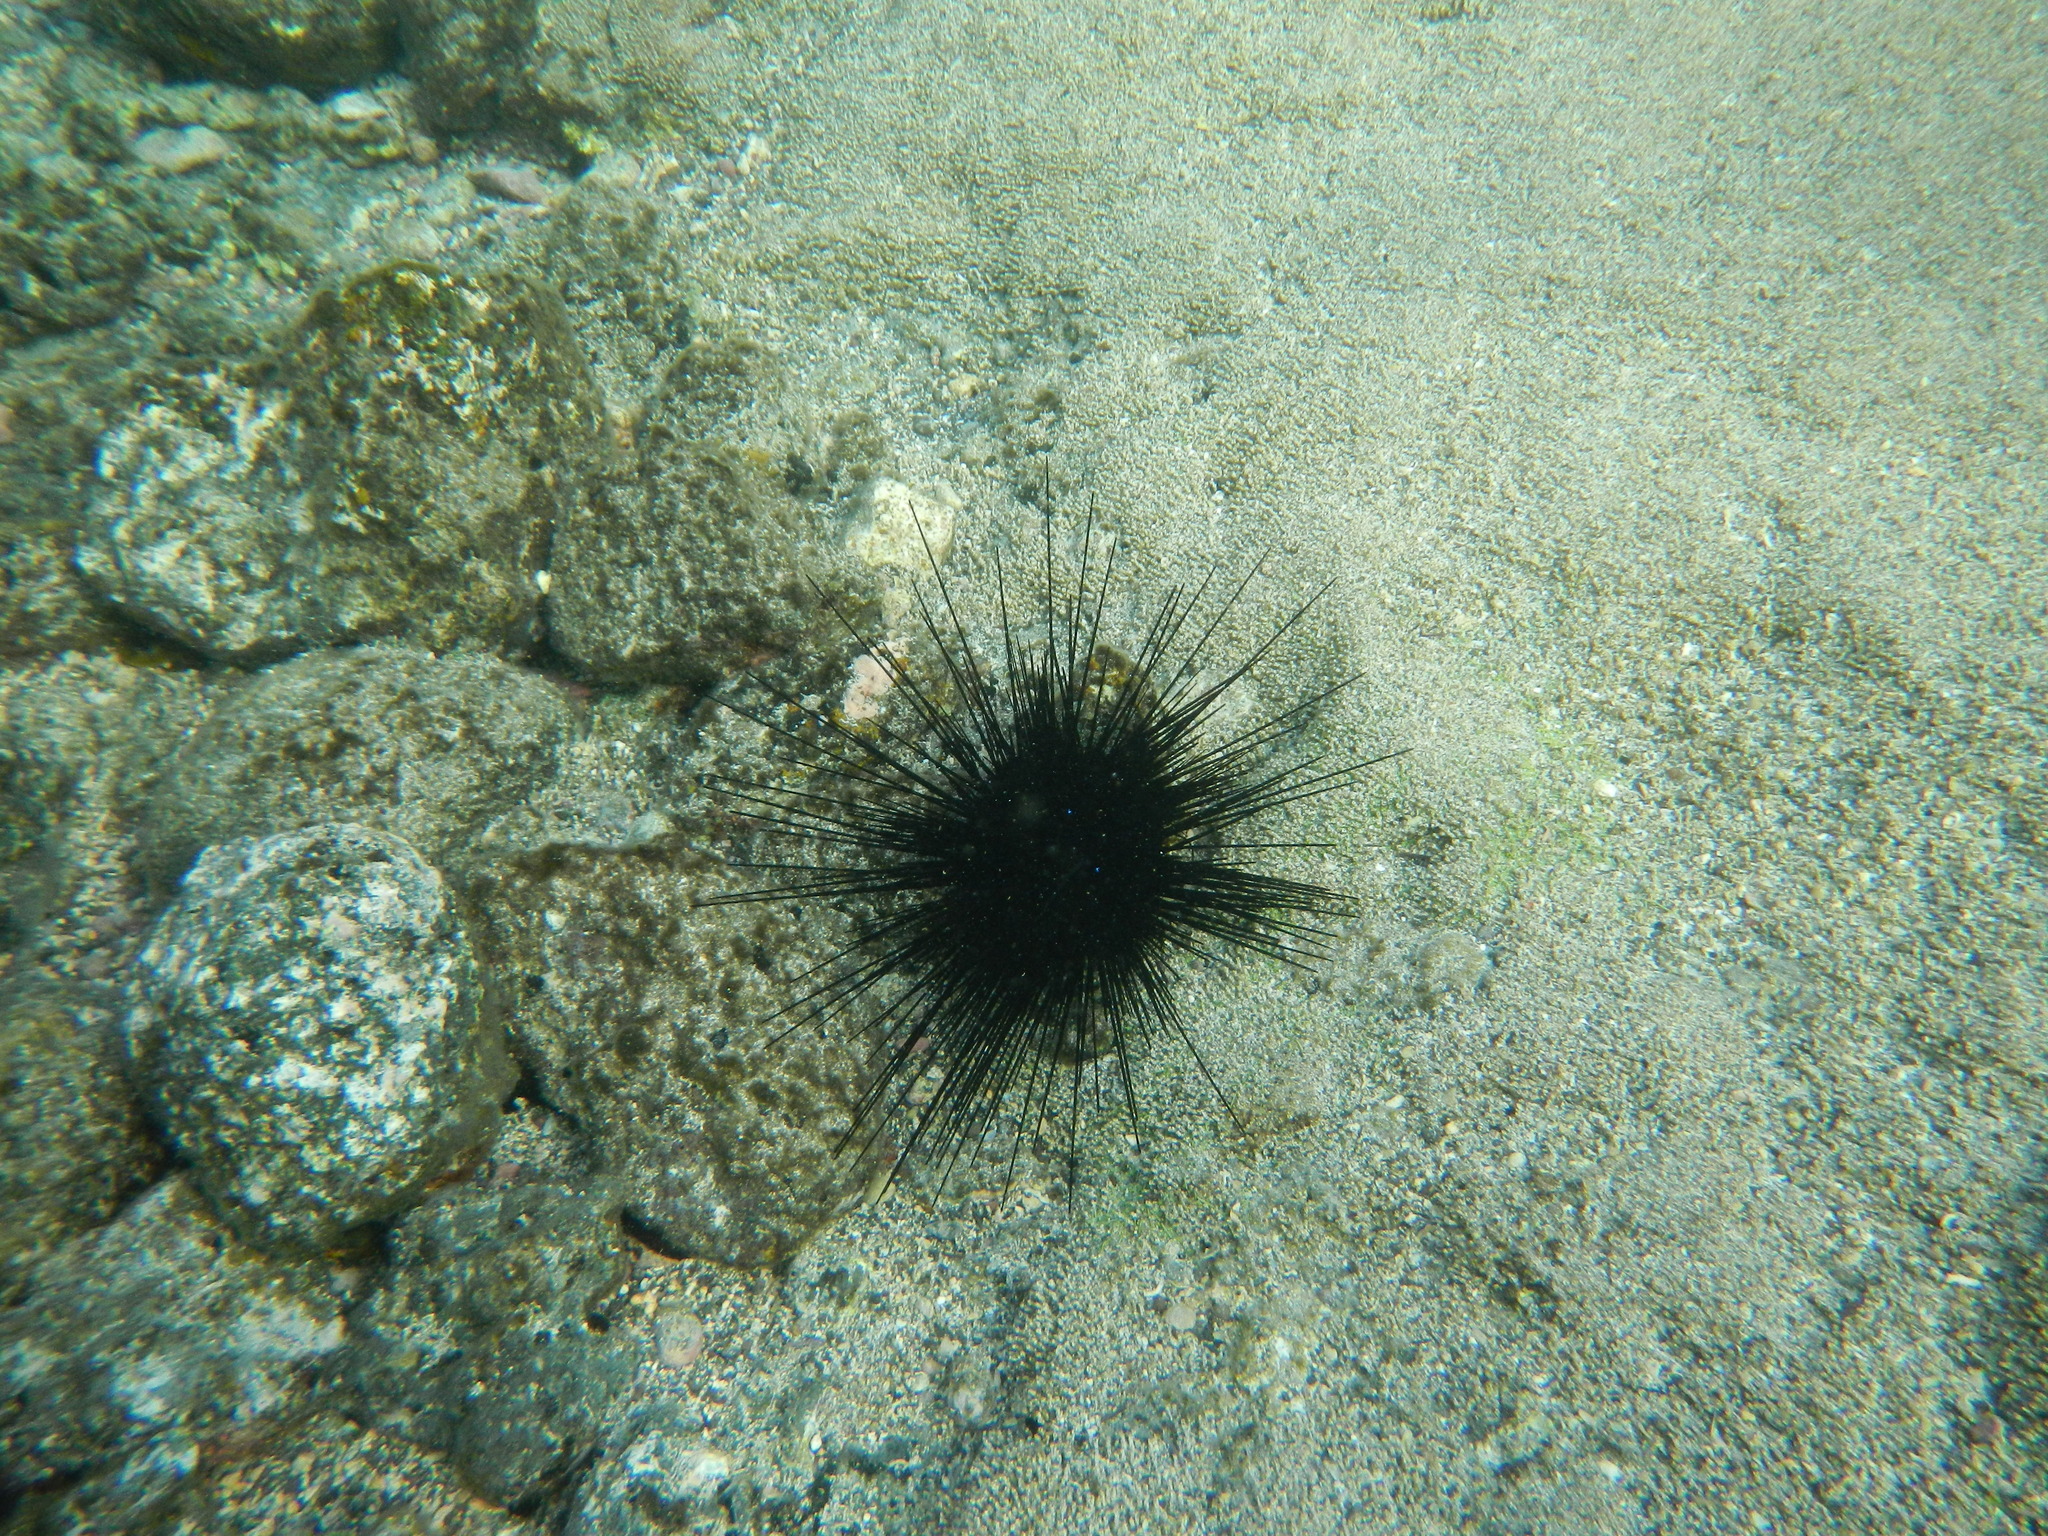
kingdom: Animalia
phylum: Echinodermata
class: Echinoidea
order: Diadematoida
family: Diadematidae
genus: Diadema
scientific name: Diadema savignyi
